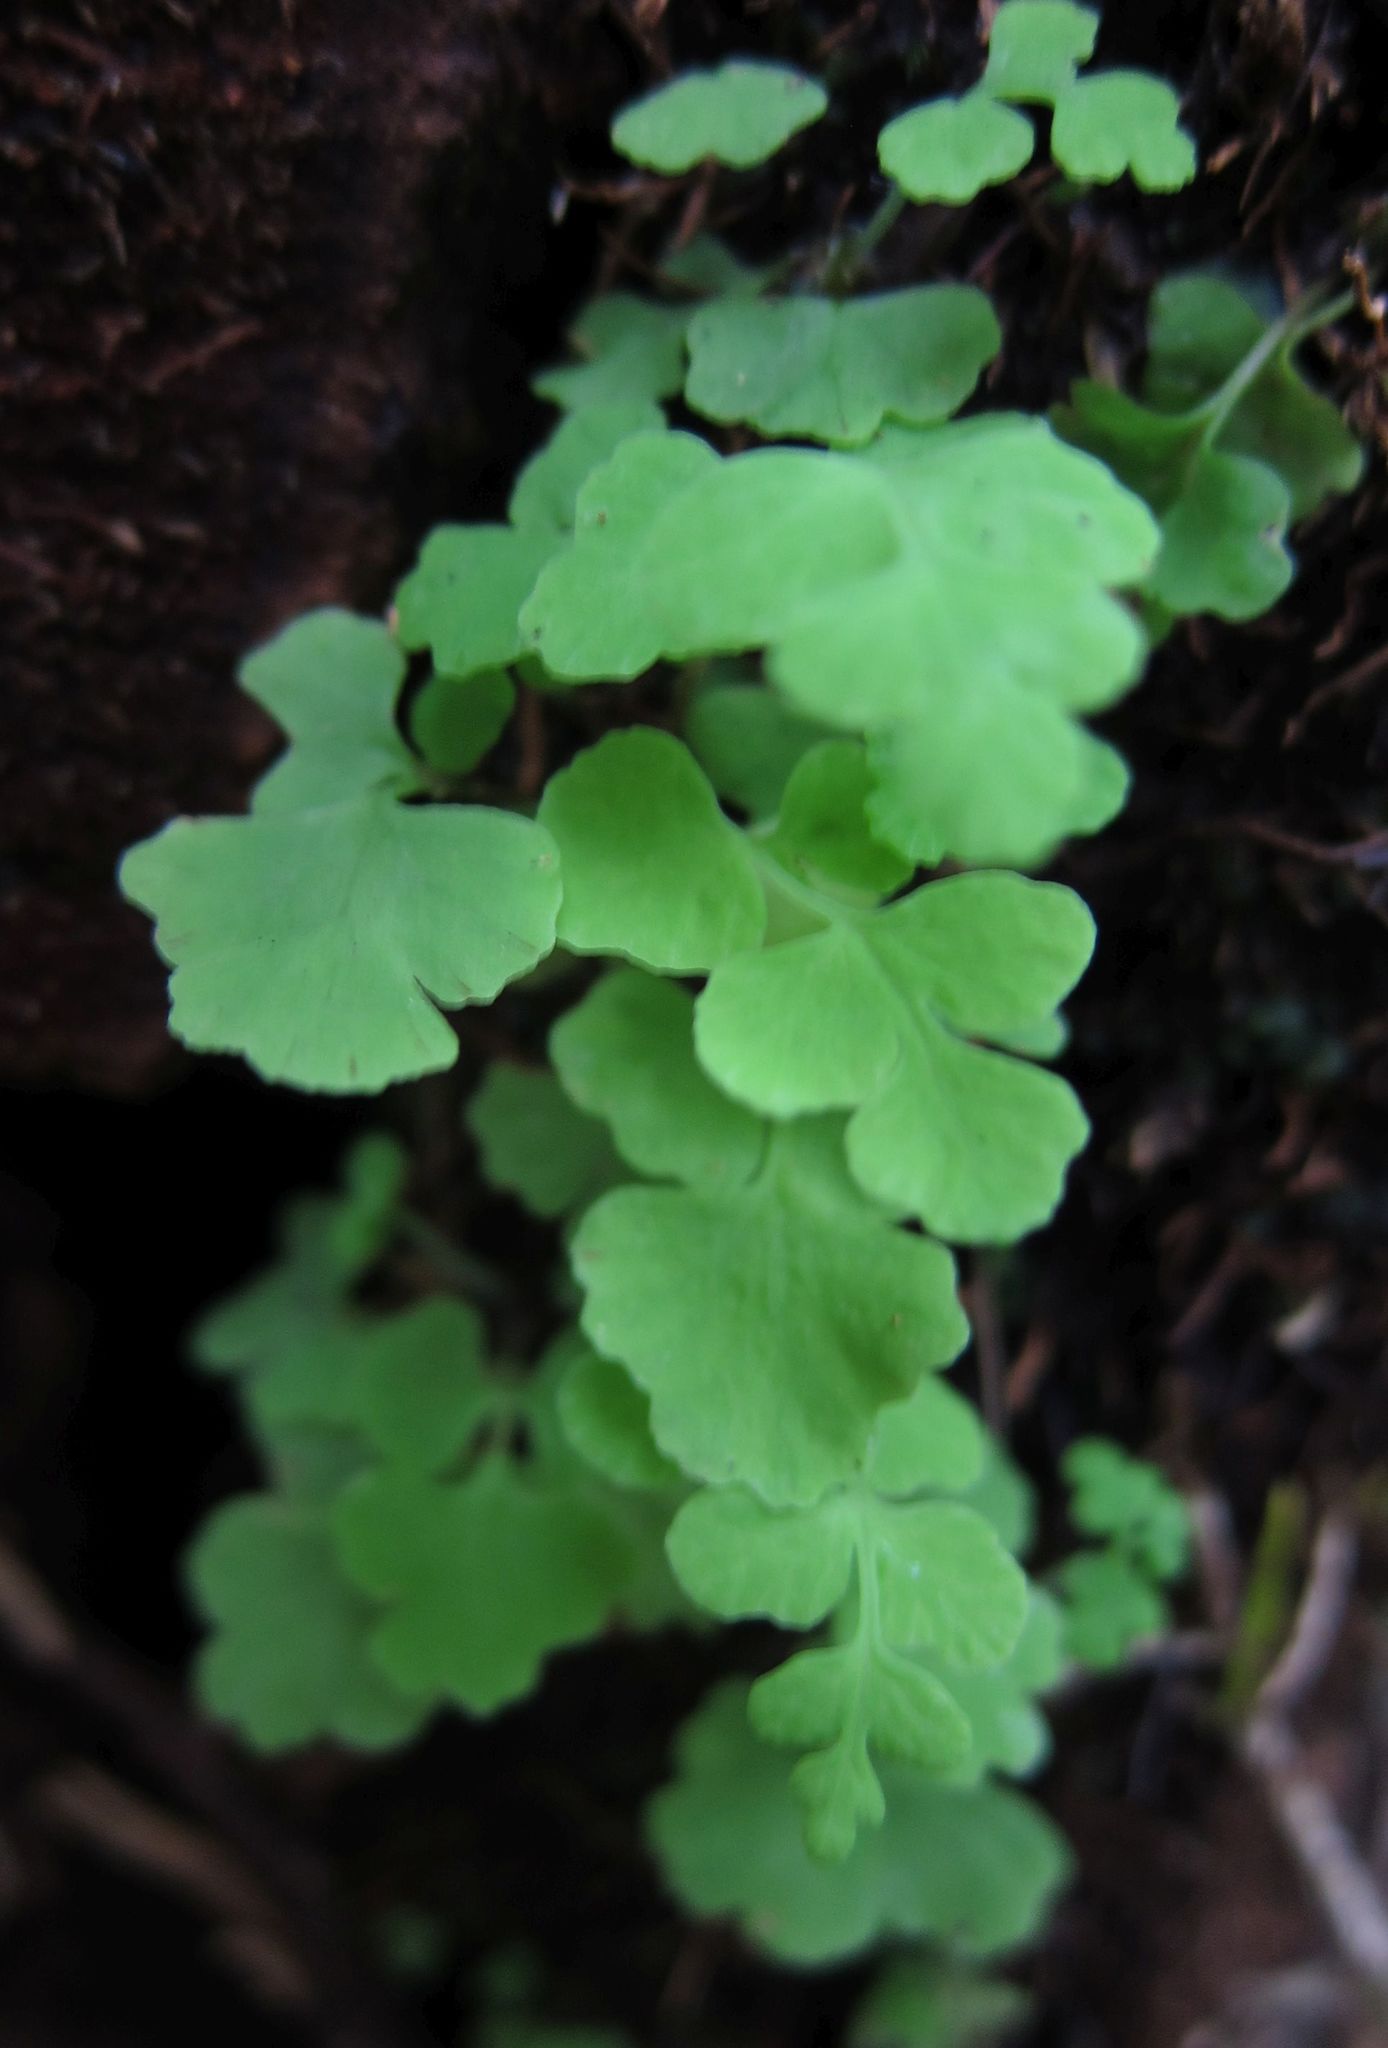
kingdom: Plantae
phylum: Tracheophyta
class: Polypodiopsida
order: Polypodiales
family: Dennstaedtiaceae
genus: Histiopteris
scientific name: Histiopteris incisa
